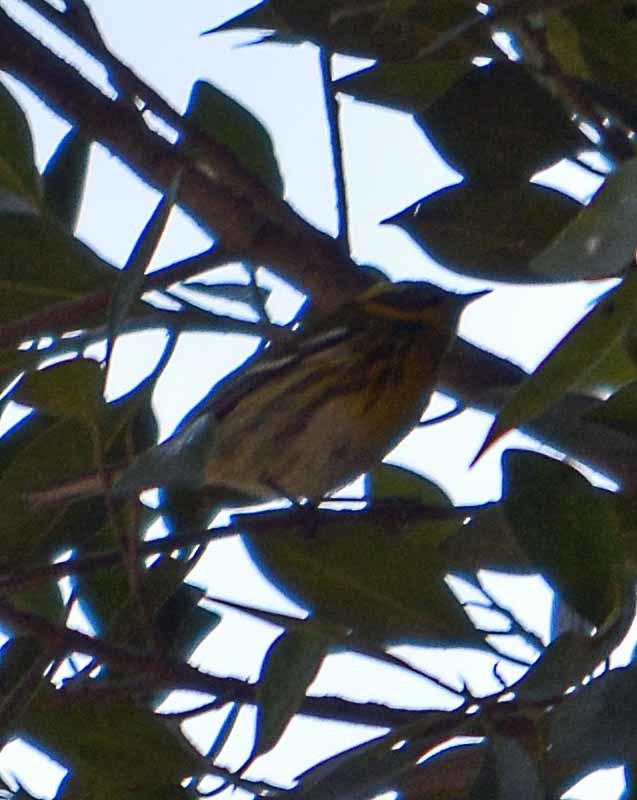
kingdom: Animalia
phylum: Chordata
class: Aves
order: Passeriformes
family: Parulidae
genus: Setophaga
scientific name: Setophaga townsendi
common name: Townsend's warbler
